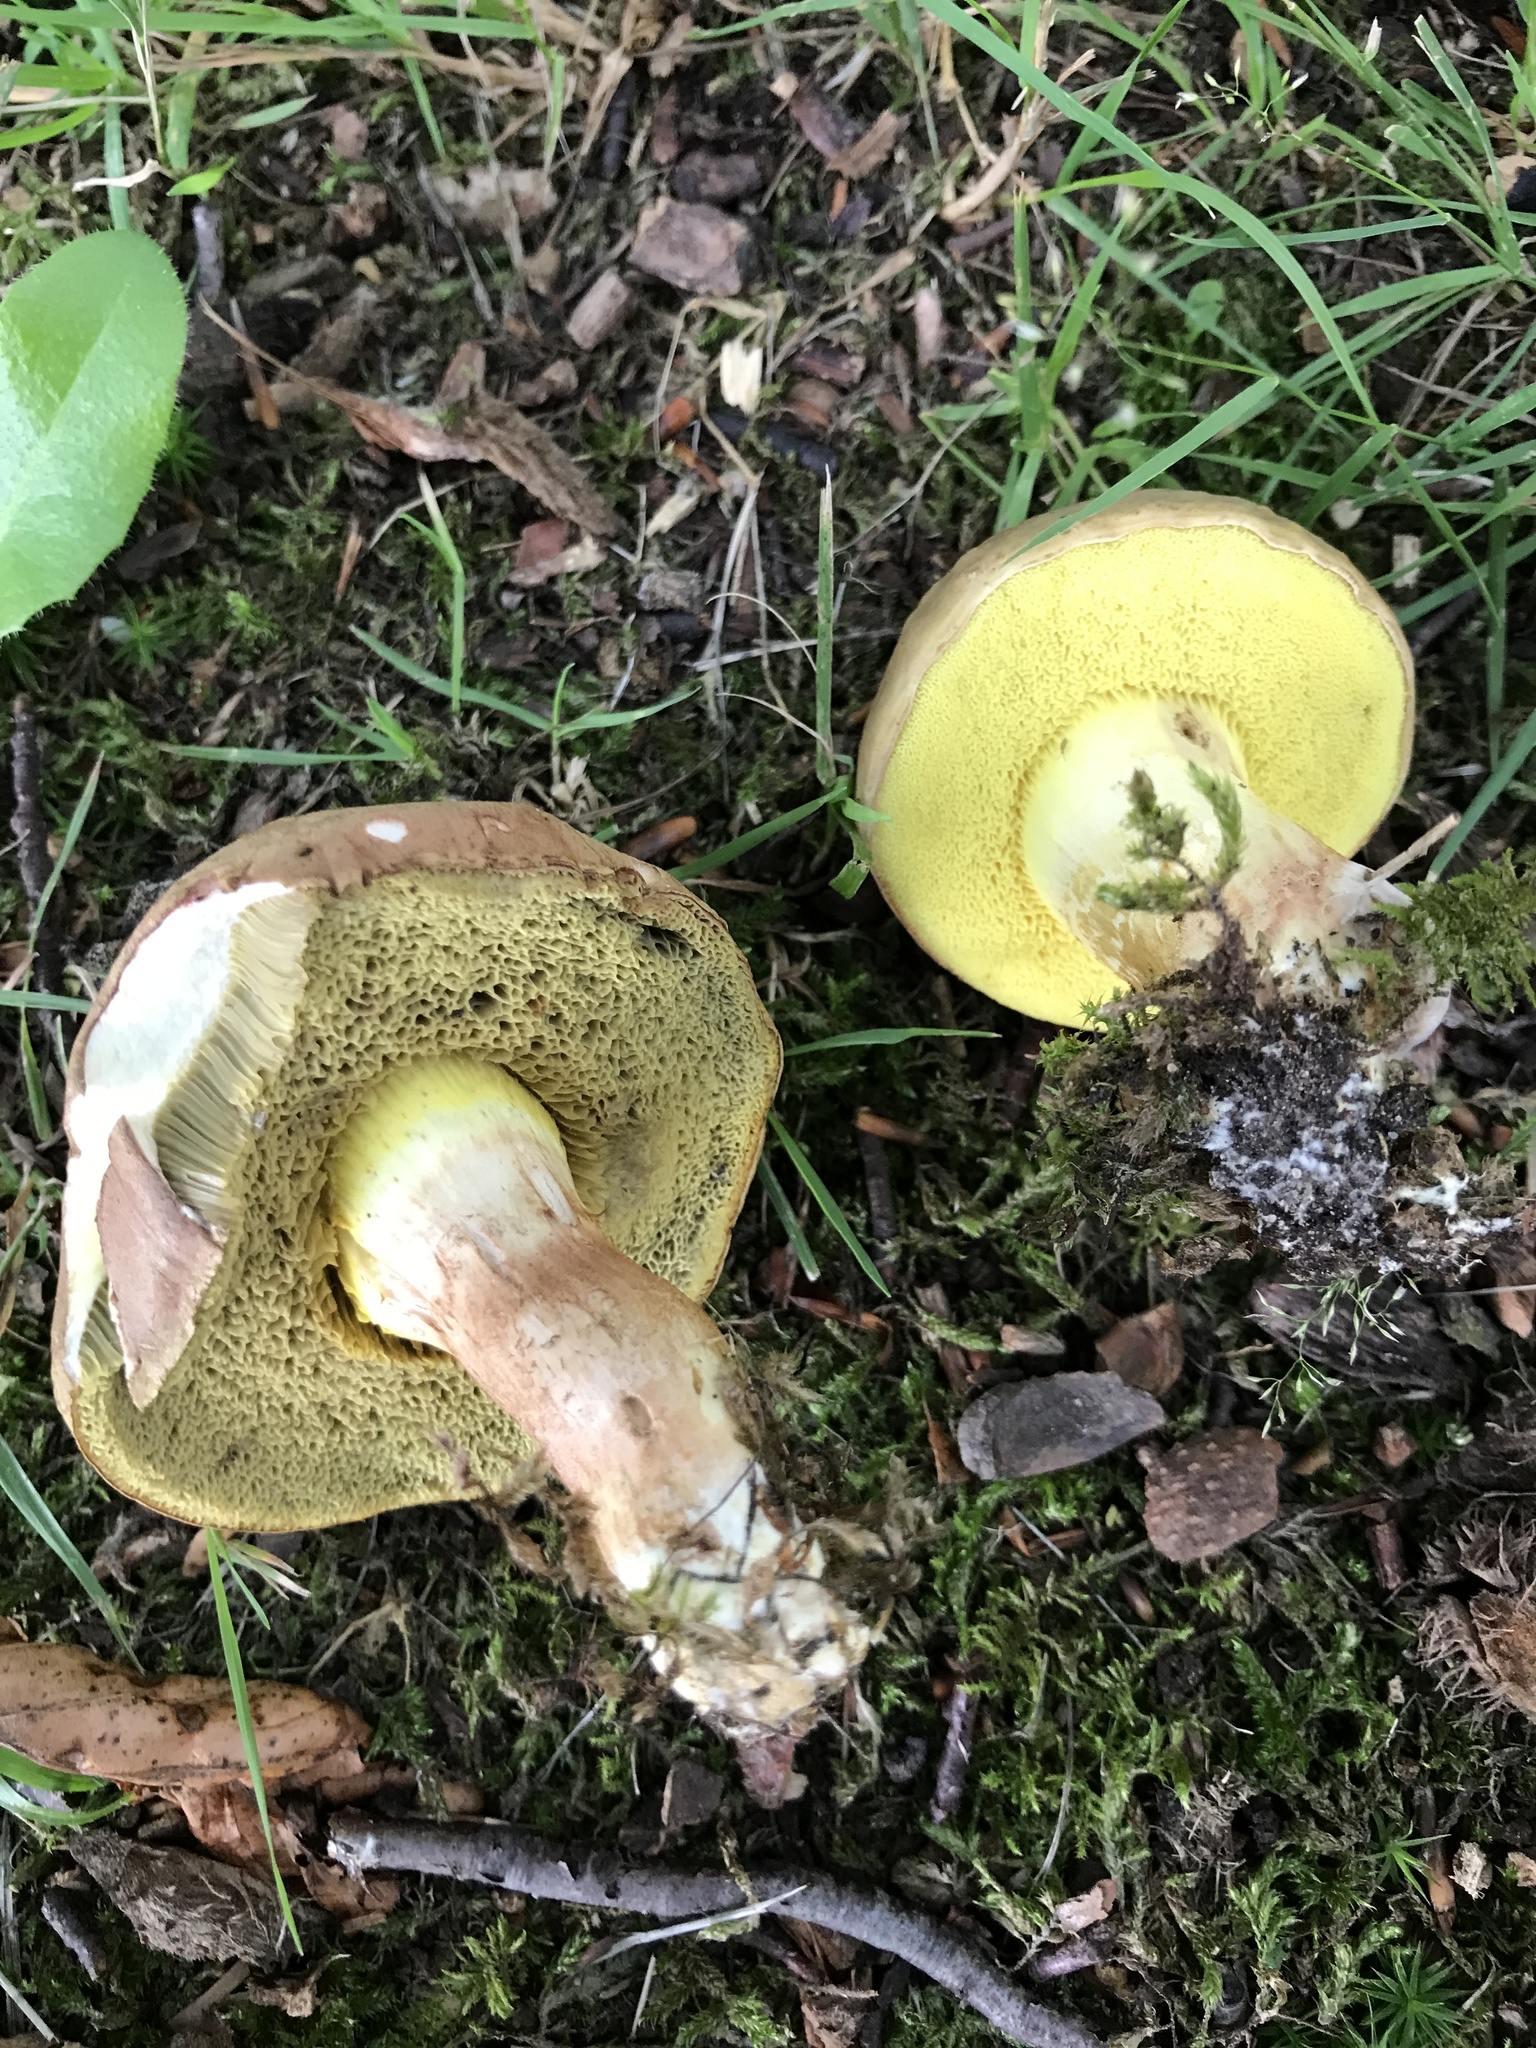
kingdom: Fungi
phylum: Basidiomycota
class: Agaricomycetes
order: Boletales
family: Boletaceae
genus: Xerocomus
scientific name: Xerocomus subtomentosus
